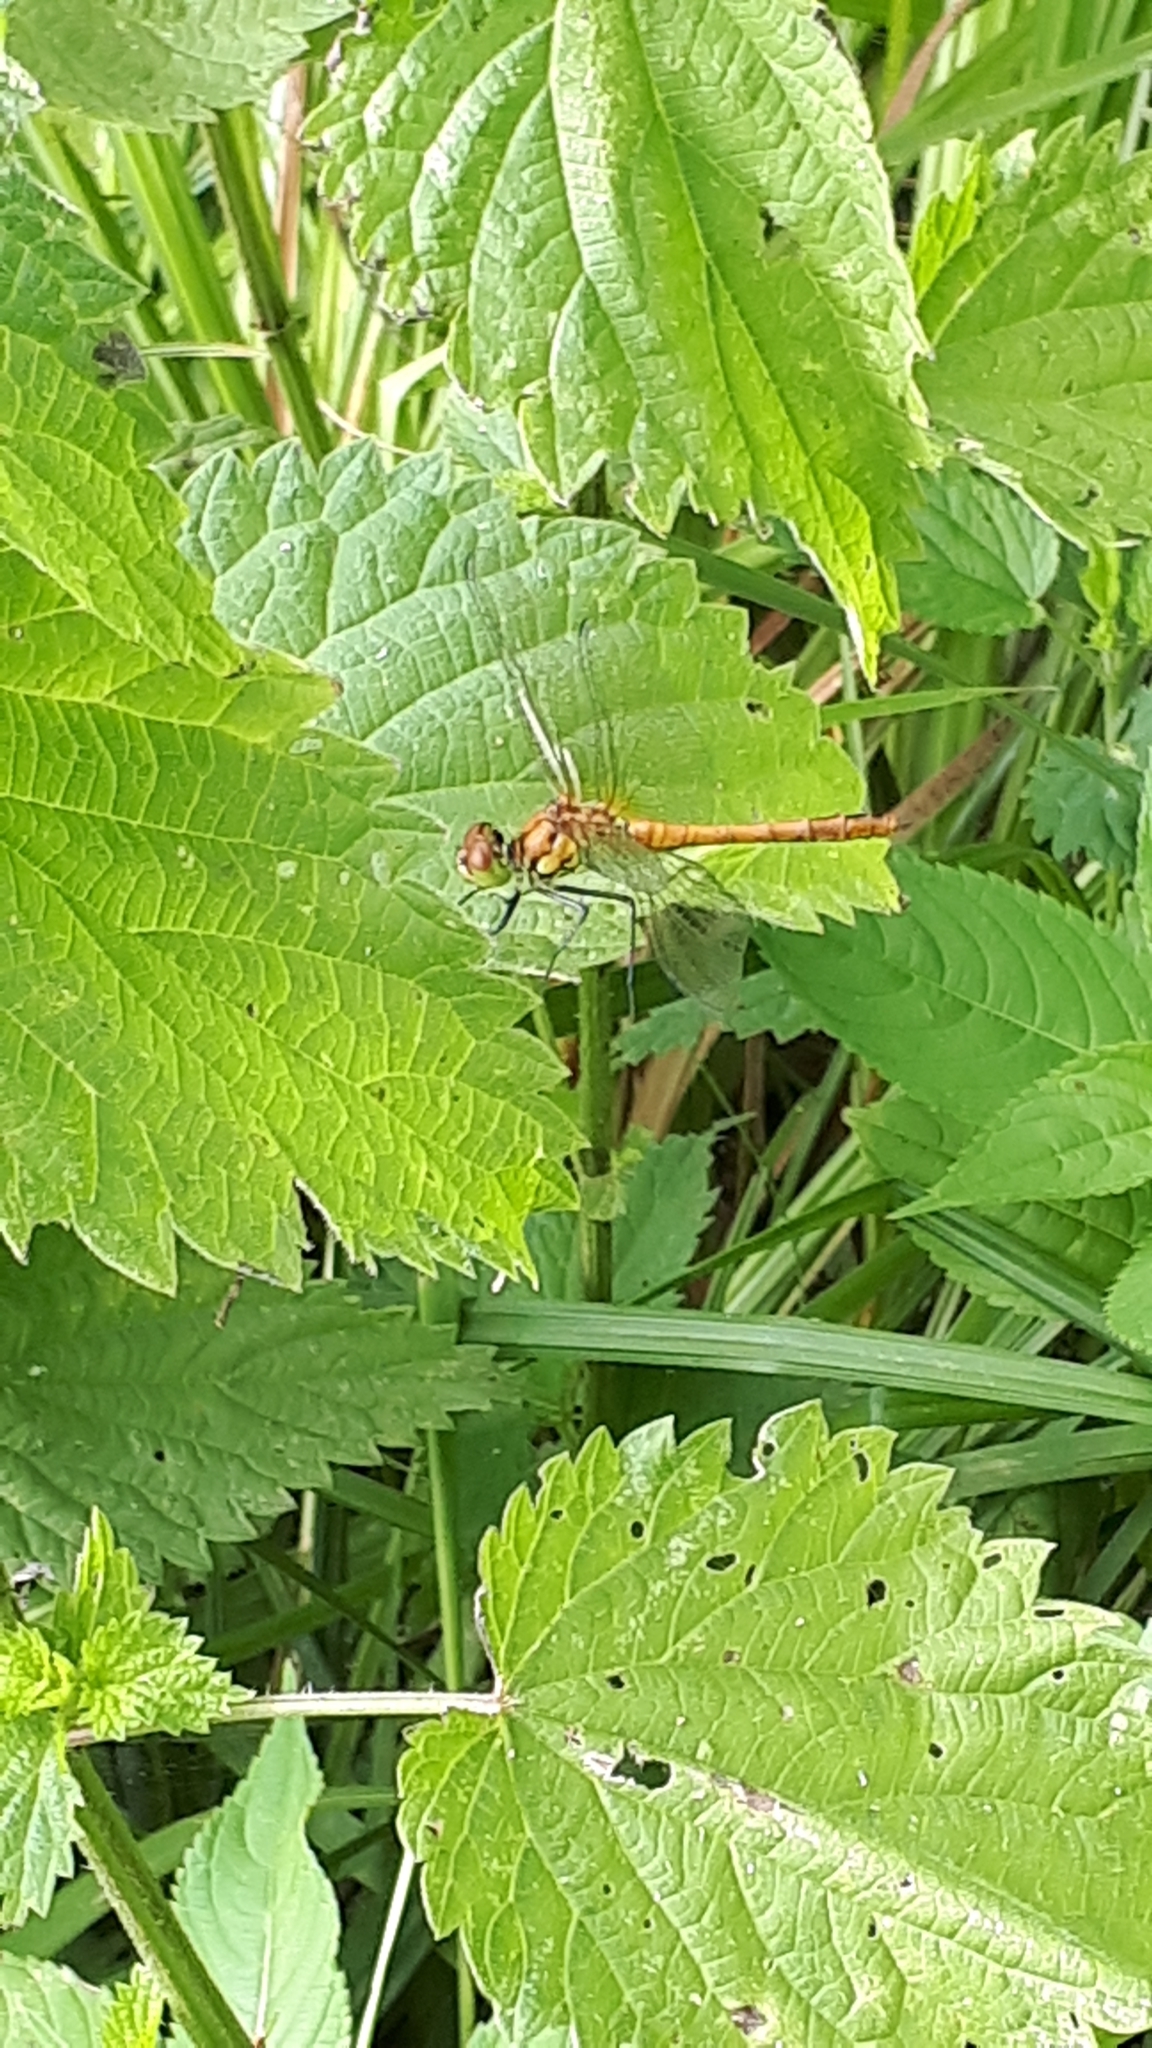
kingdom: Animalia
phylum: Arthropoda
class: Insecta
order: Odonata
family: Libellulidae
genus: Sympetrum
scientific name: Sympetrum sanguineum
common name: Ruddy darter
